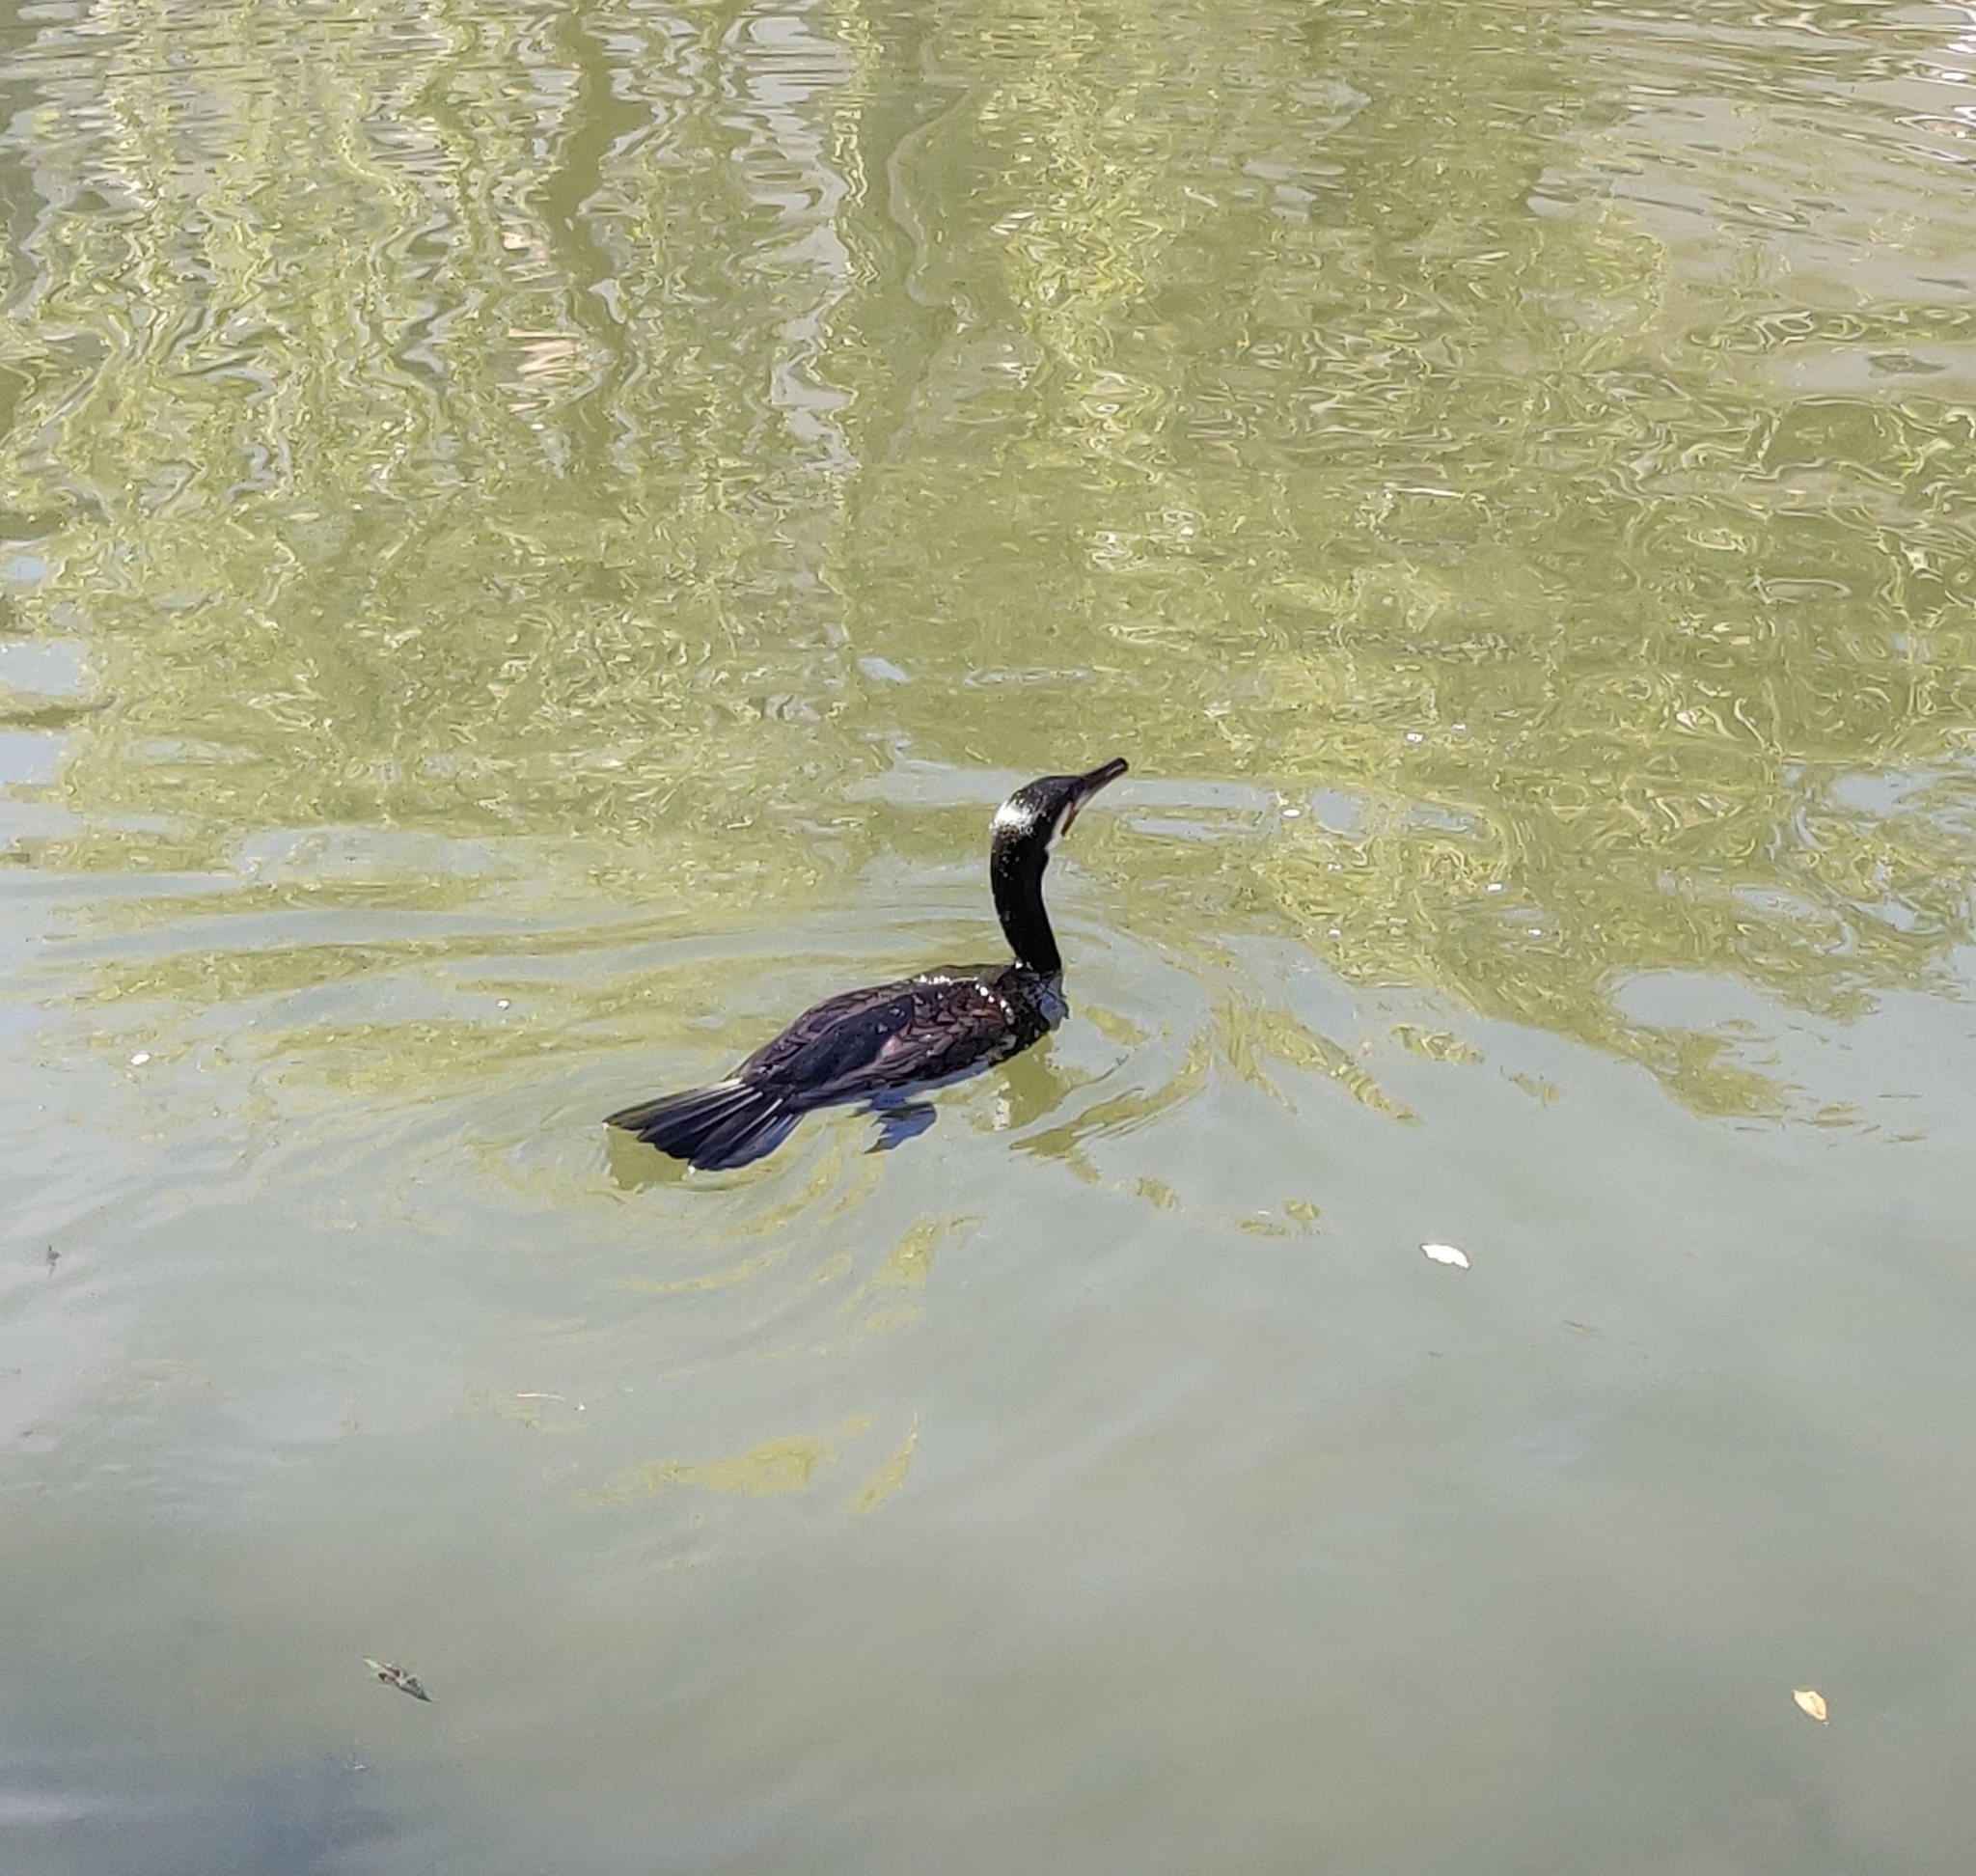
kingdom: Animalia
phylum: Chordata
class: Aves
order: Suliformes
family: Phalacrocoracidae
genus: Phalacrocorax
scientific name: Phalacrocorax carbo
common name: Great cormorant
